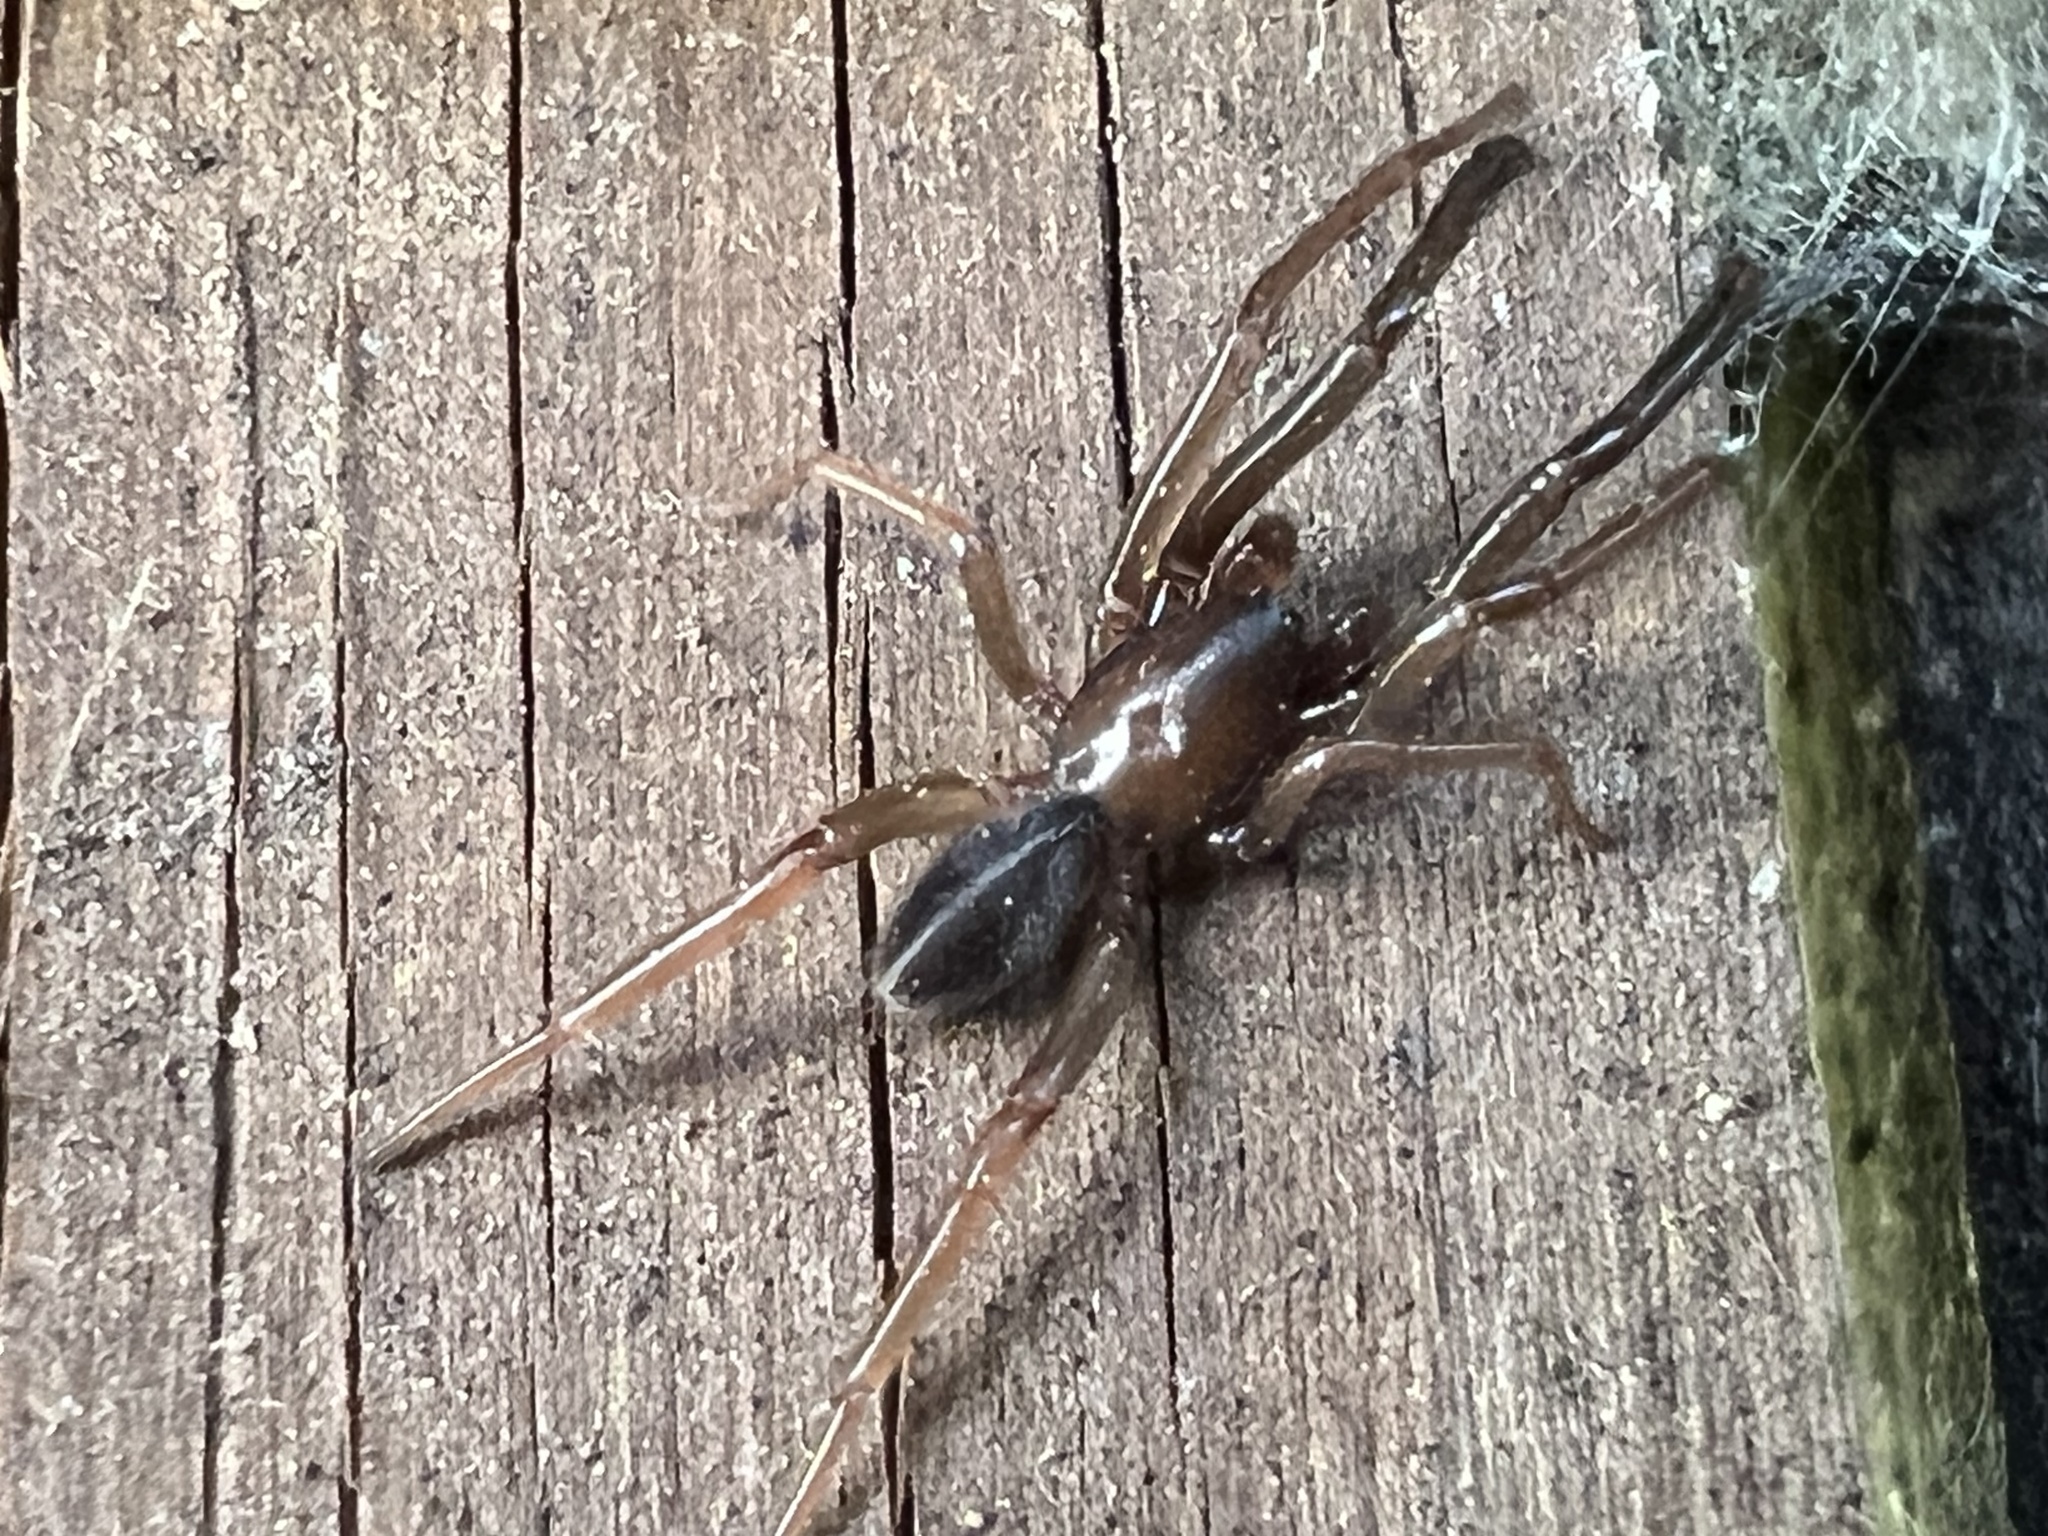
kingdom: Animalia
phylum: Arthropoda
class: Arachnida
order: Araneae
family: Segestriidae
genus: Ariadna
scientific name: Ariadna bicolor
